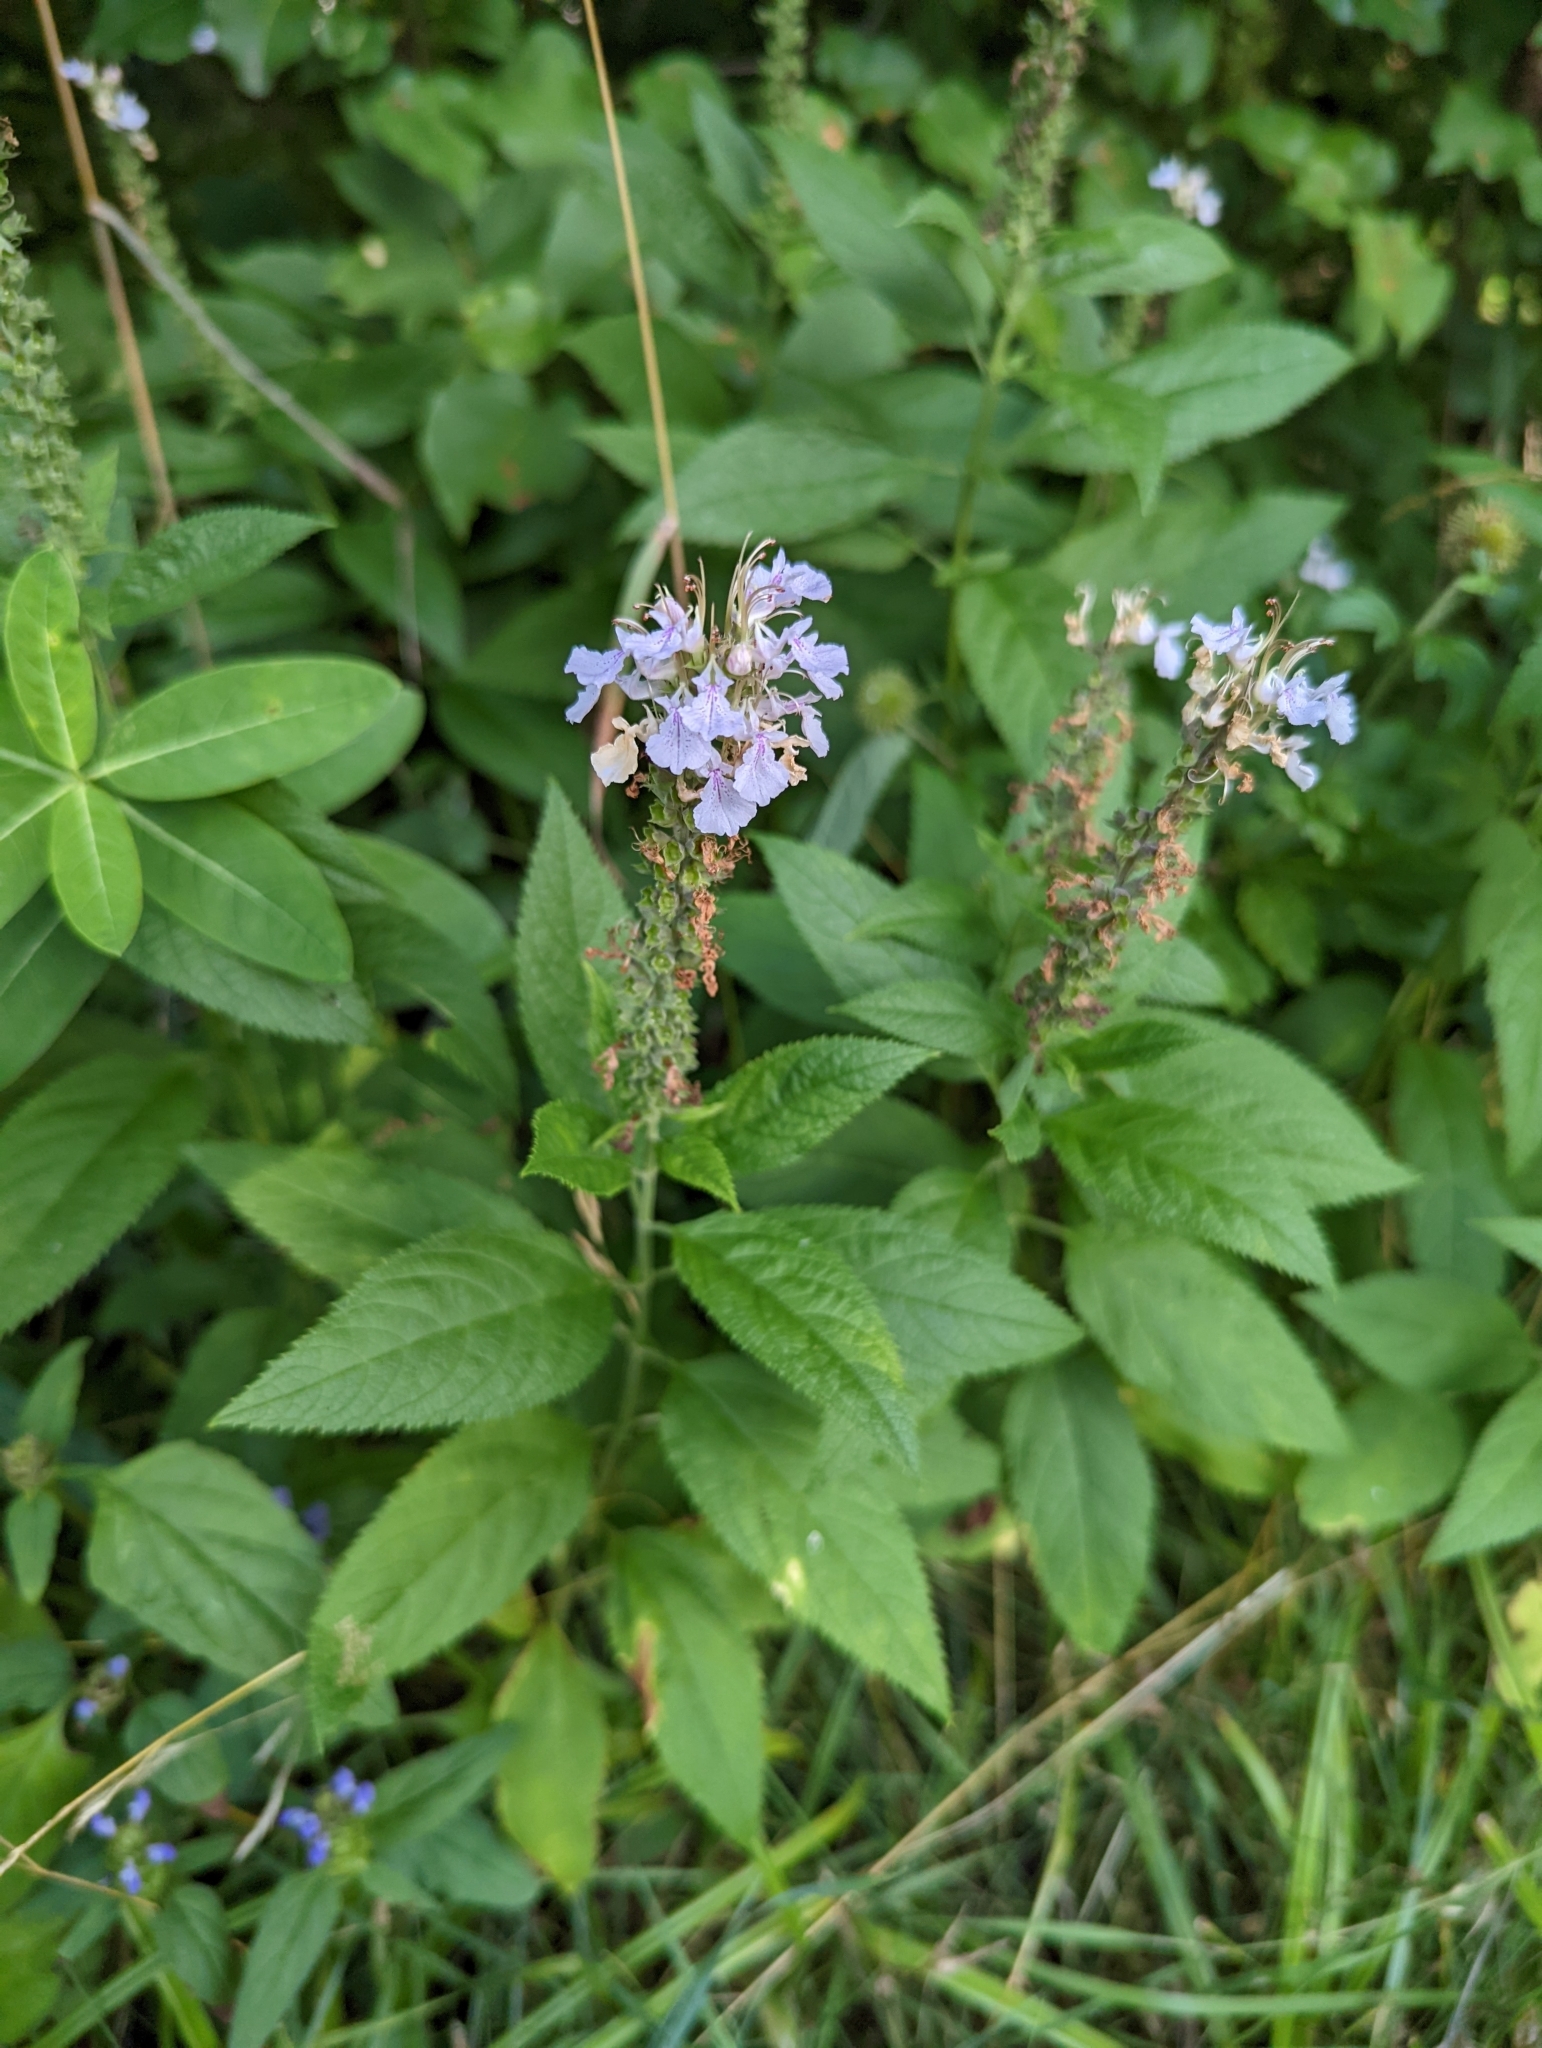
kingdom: Plantae
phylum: Tracheophyta
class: Magnoliopsida
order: Lamiales
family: Lamiaceae
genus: Teucrium
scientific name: Teucrium canadense
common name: American germander
